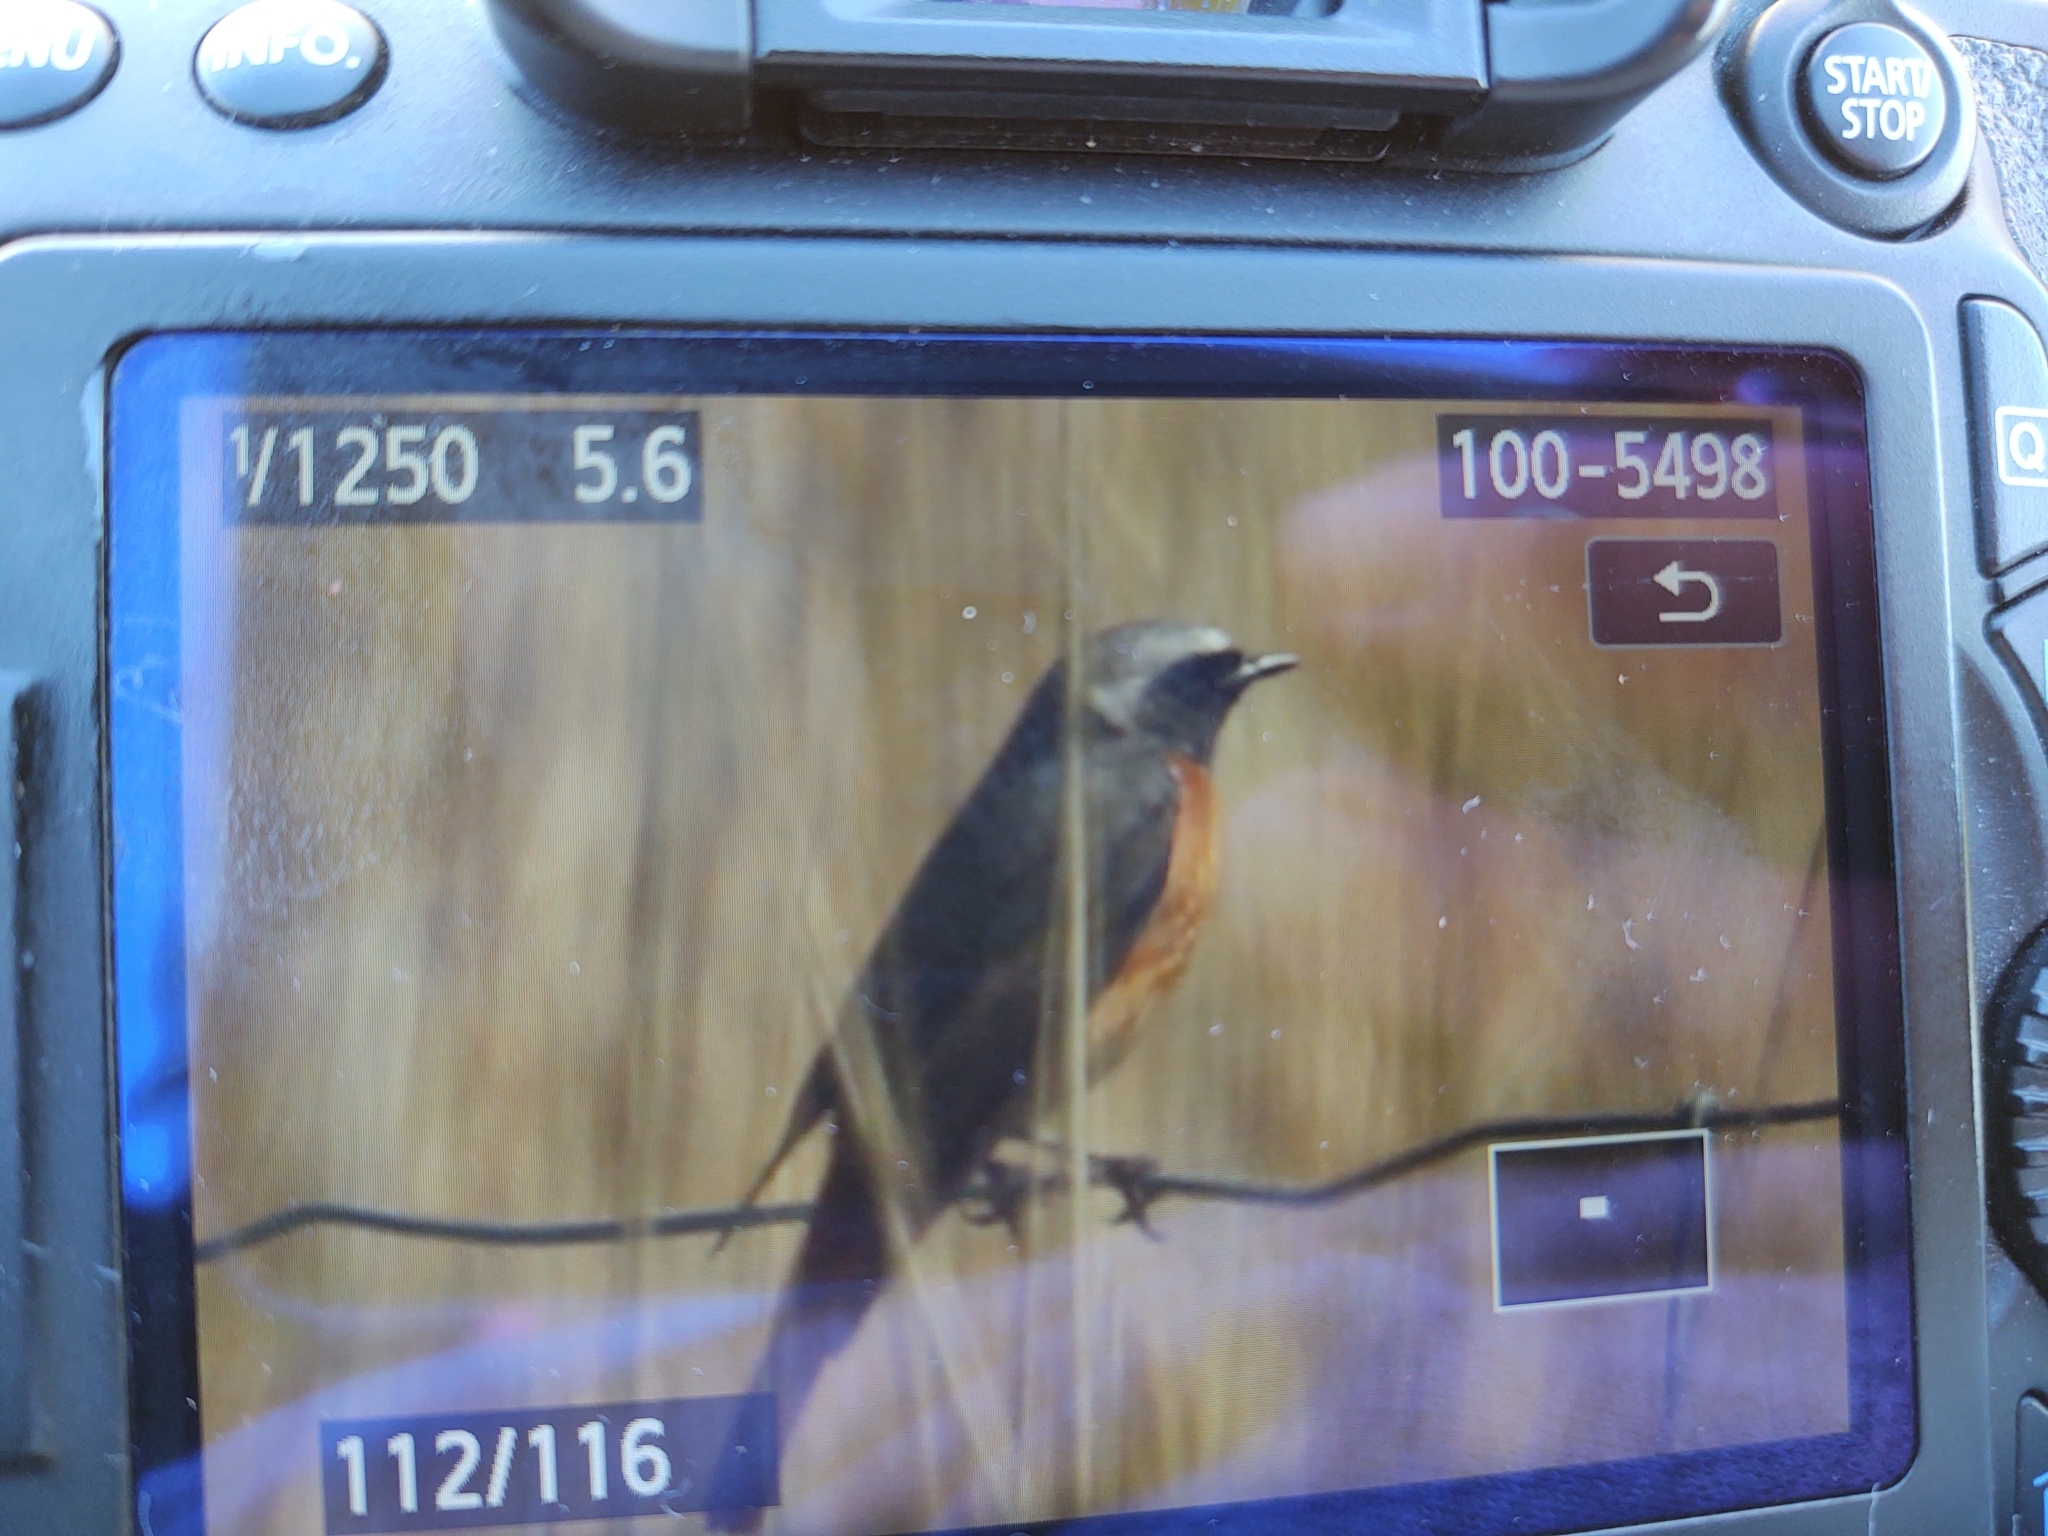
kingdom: Animalia
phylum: Chordata
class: Aves
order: Passeriformes
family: Muscicapidae
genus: Phoenicurus
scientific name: Phoenicurus phoenicurus
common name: Common redstart
